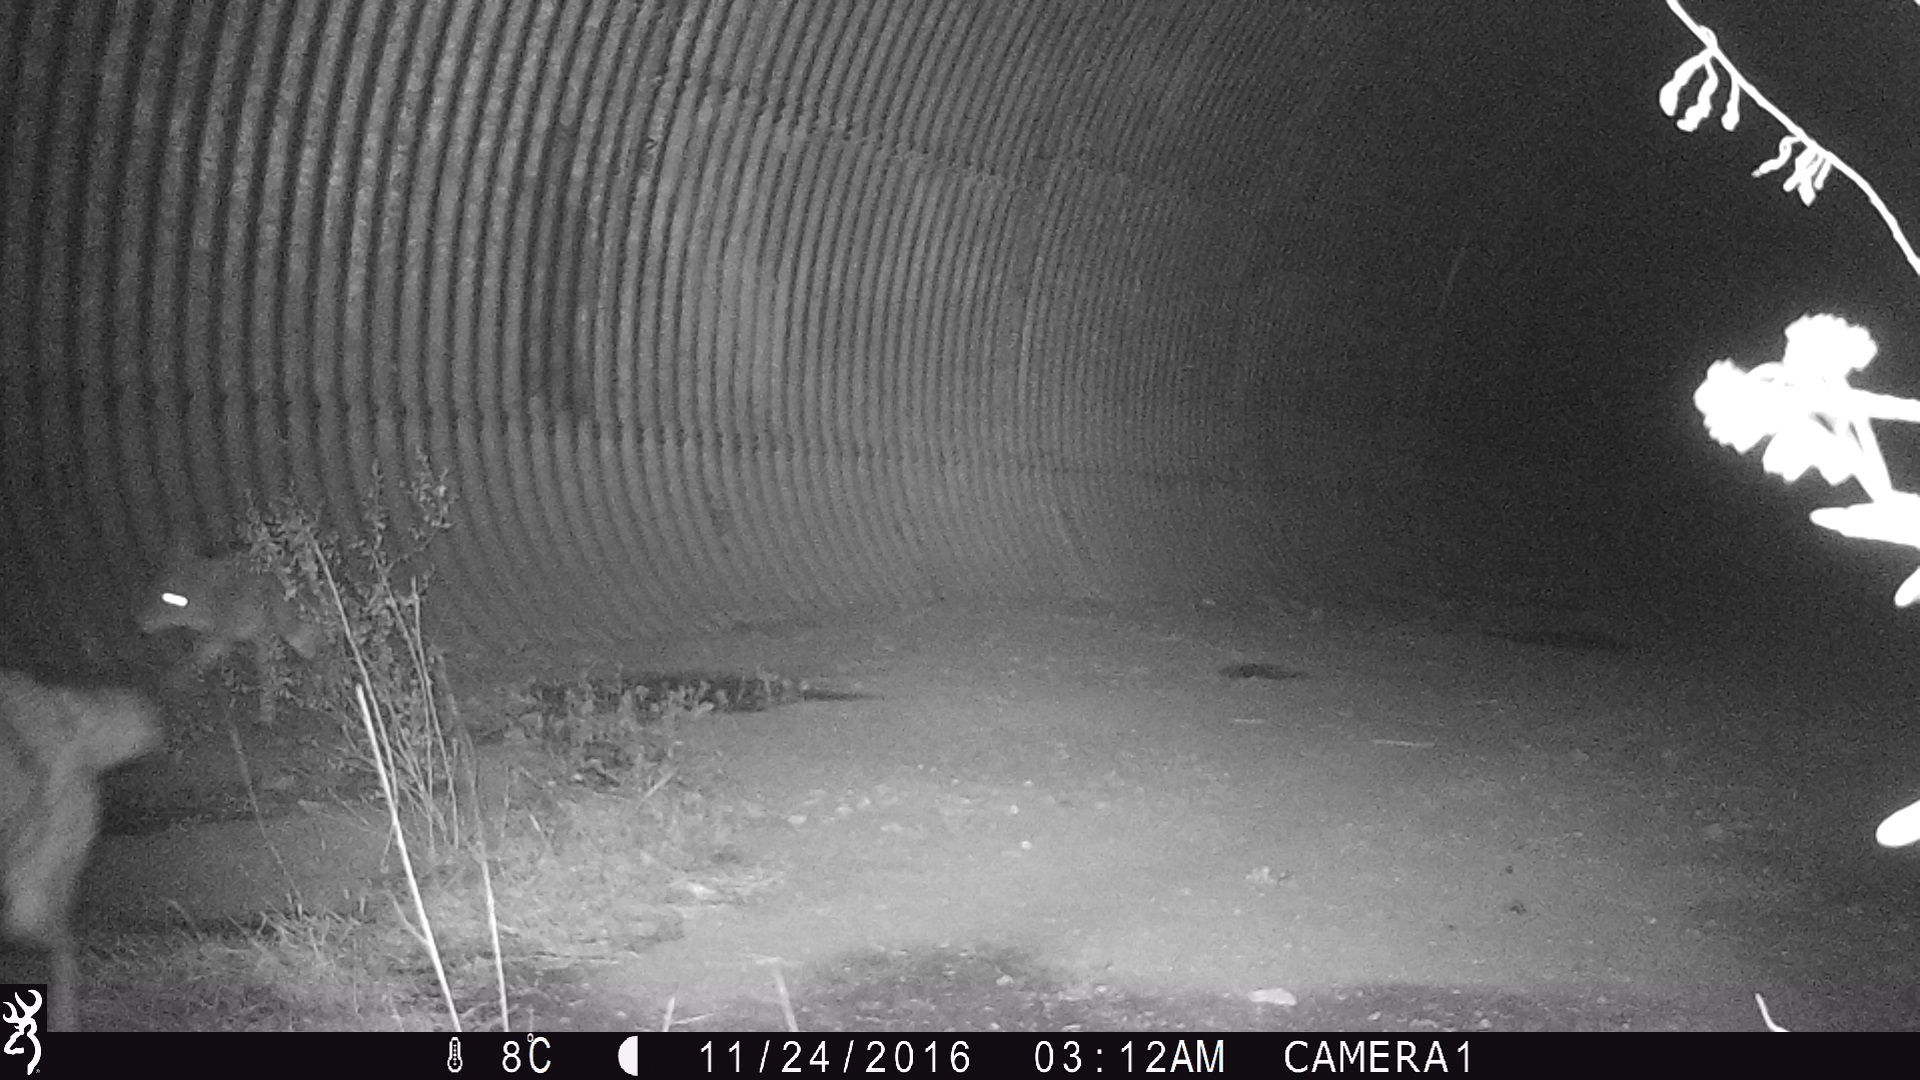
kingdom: Animalia
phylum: Chordata
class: Mammalia
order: Carnivora
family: Canidae
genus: Canis
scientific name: Canis latrans
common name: Coyote
